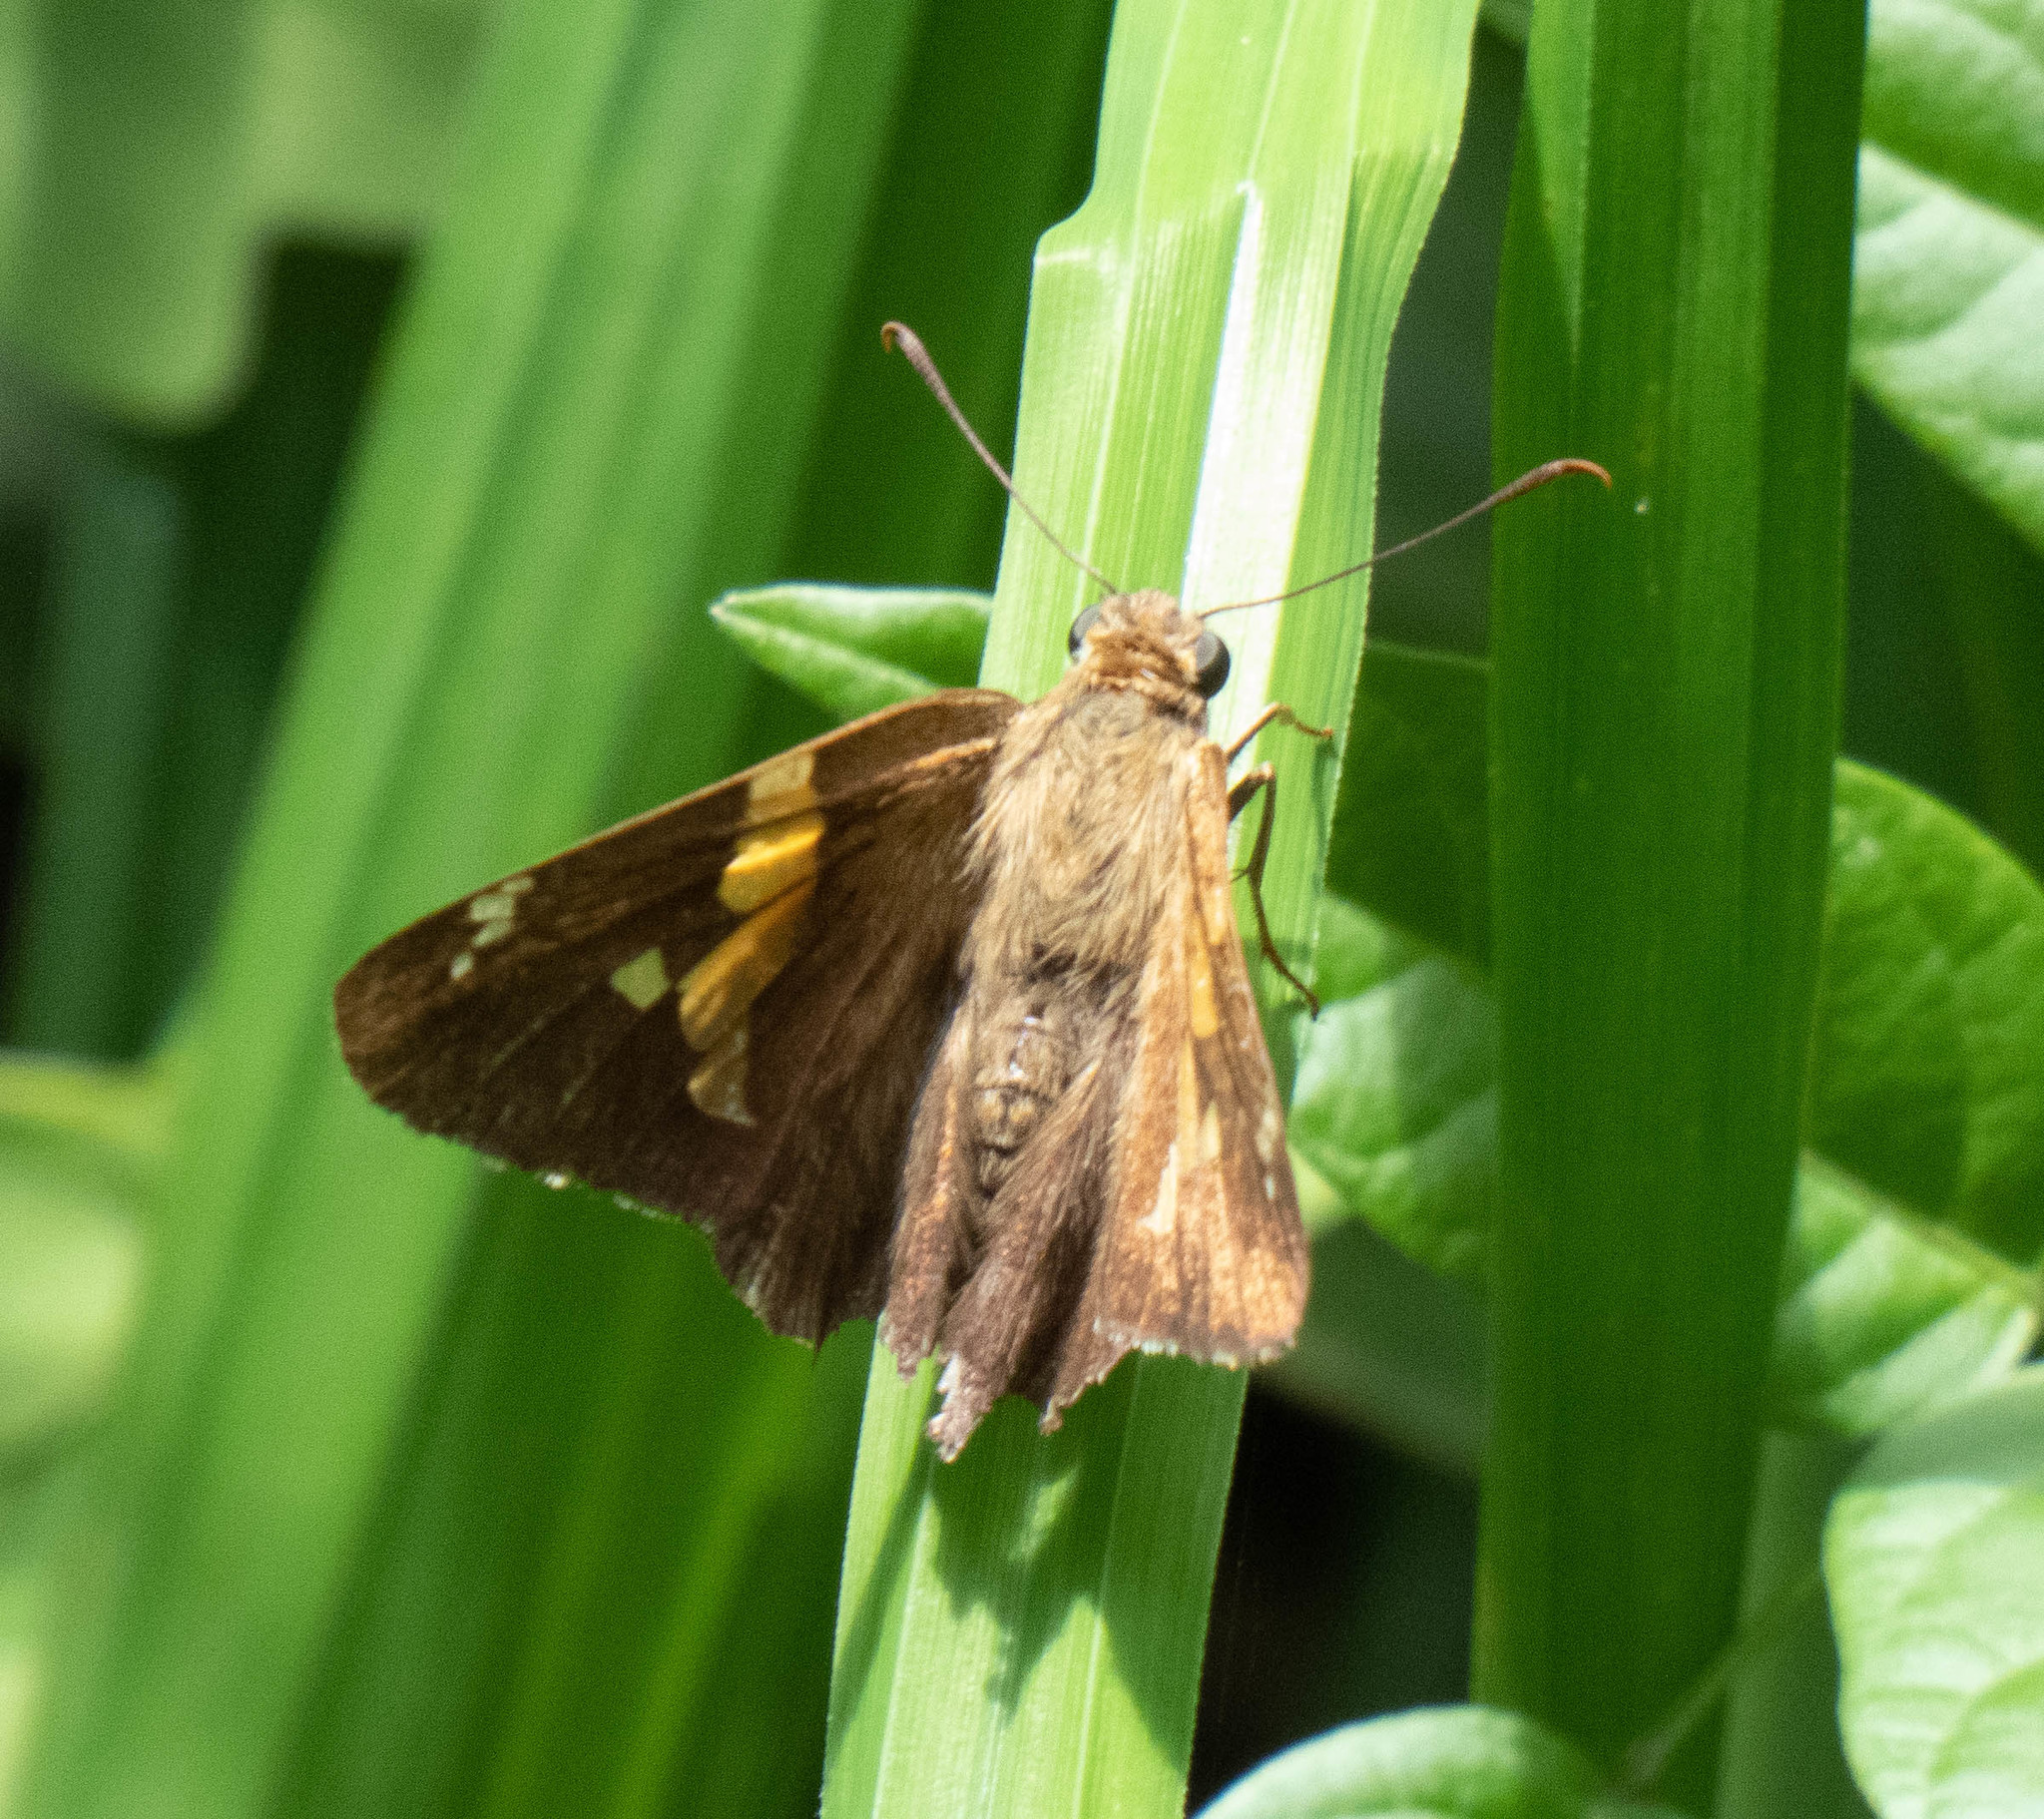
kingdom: Animalia
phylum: Arthropoda
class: Insecta
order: Lepidoptera
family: Hesperiidae
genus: Epargyreus
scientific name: Epargyreus clarus
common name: Silver-spotted skipper
